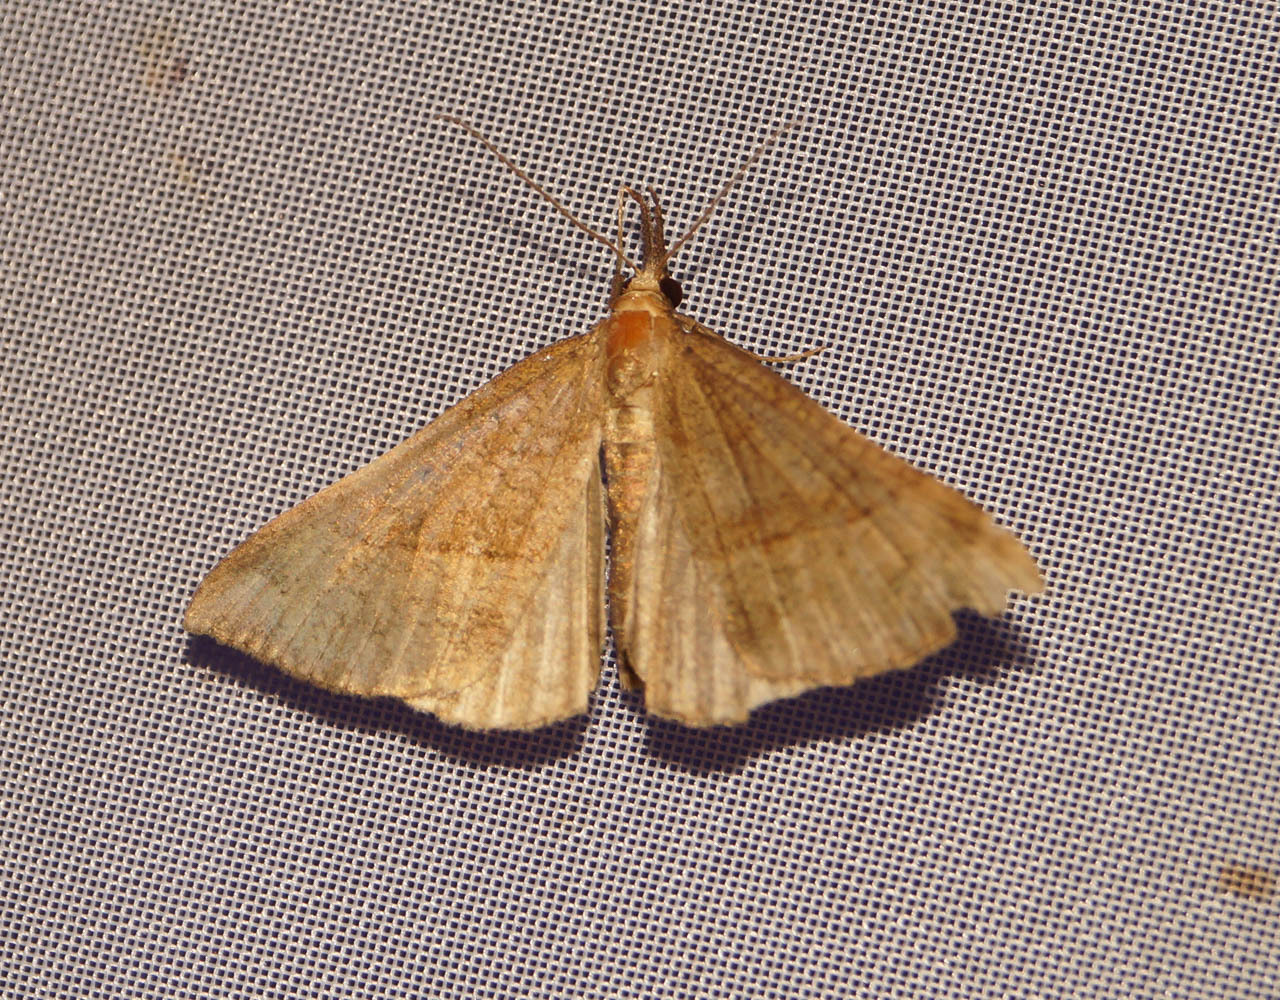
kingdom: Animalia
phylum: Arthropoda
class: Insecta
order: Lepidoptera
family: Erebidae
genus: Hypena
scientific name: Hypena proboscidalis
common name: Snout
